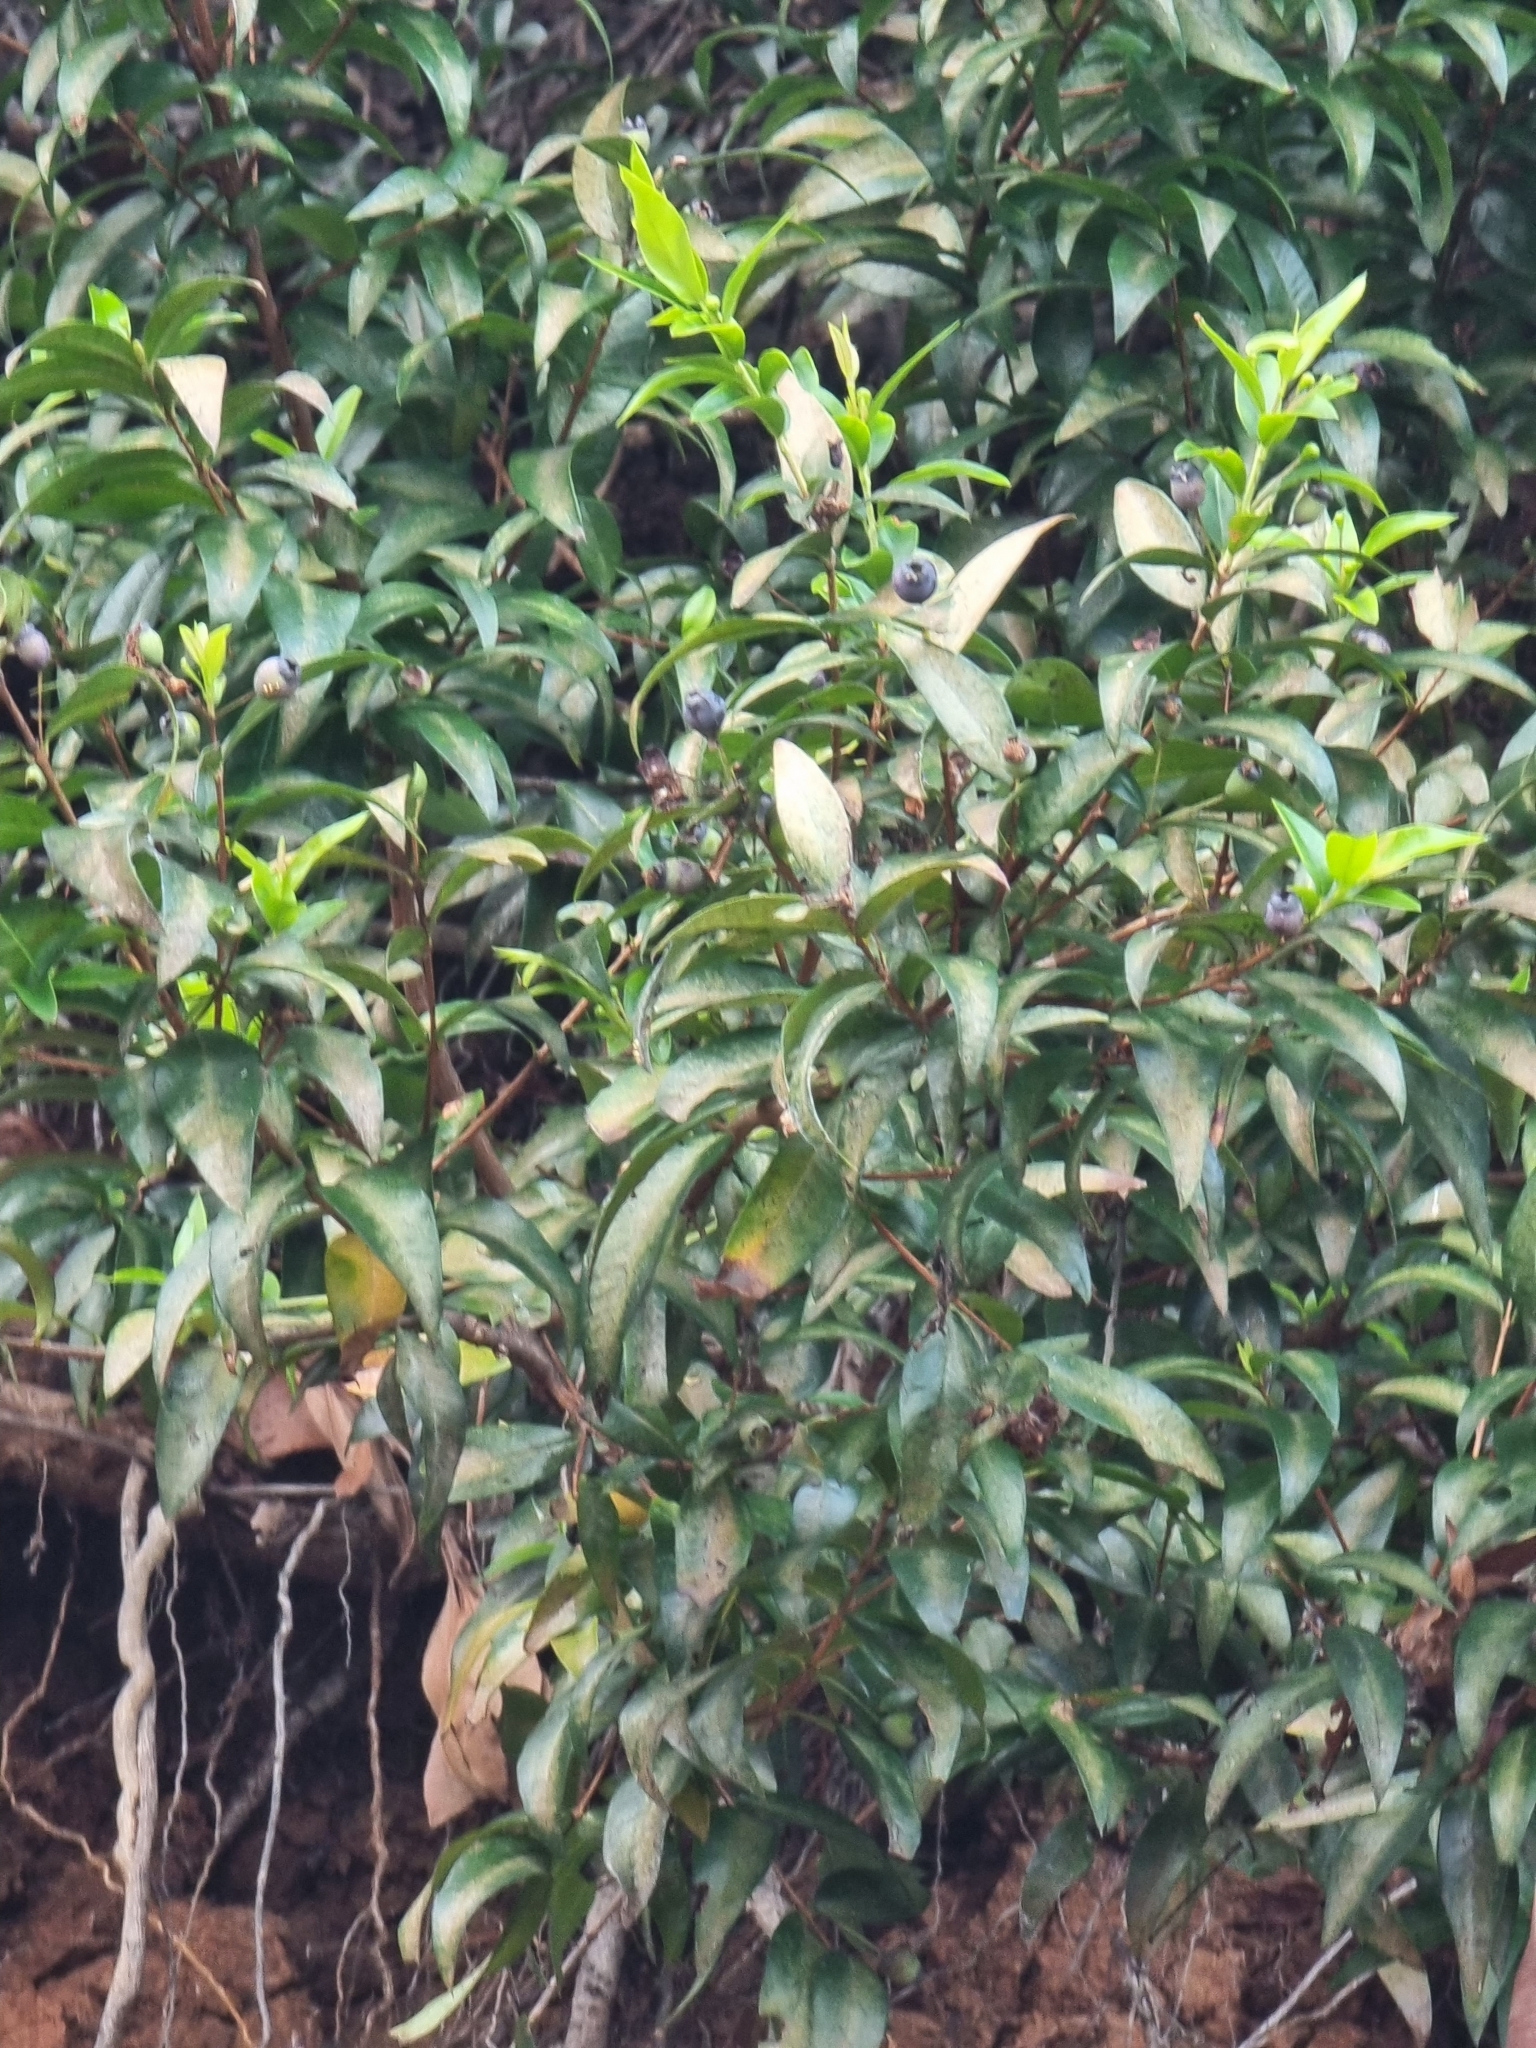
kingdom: Plantae
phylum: Tracheophyta
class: Magnoliopsida
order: Myrtales
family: Myrtaceae
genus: Myrtus
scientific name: Myrtus communis
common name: Myrtle
